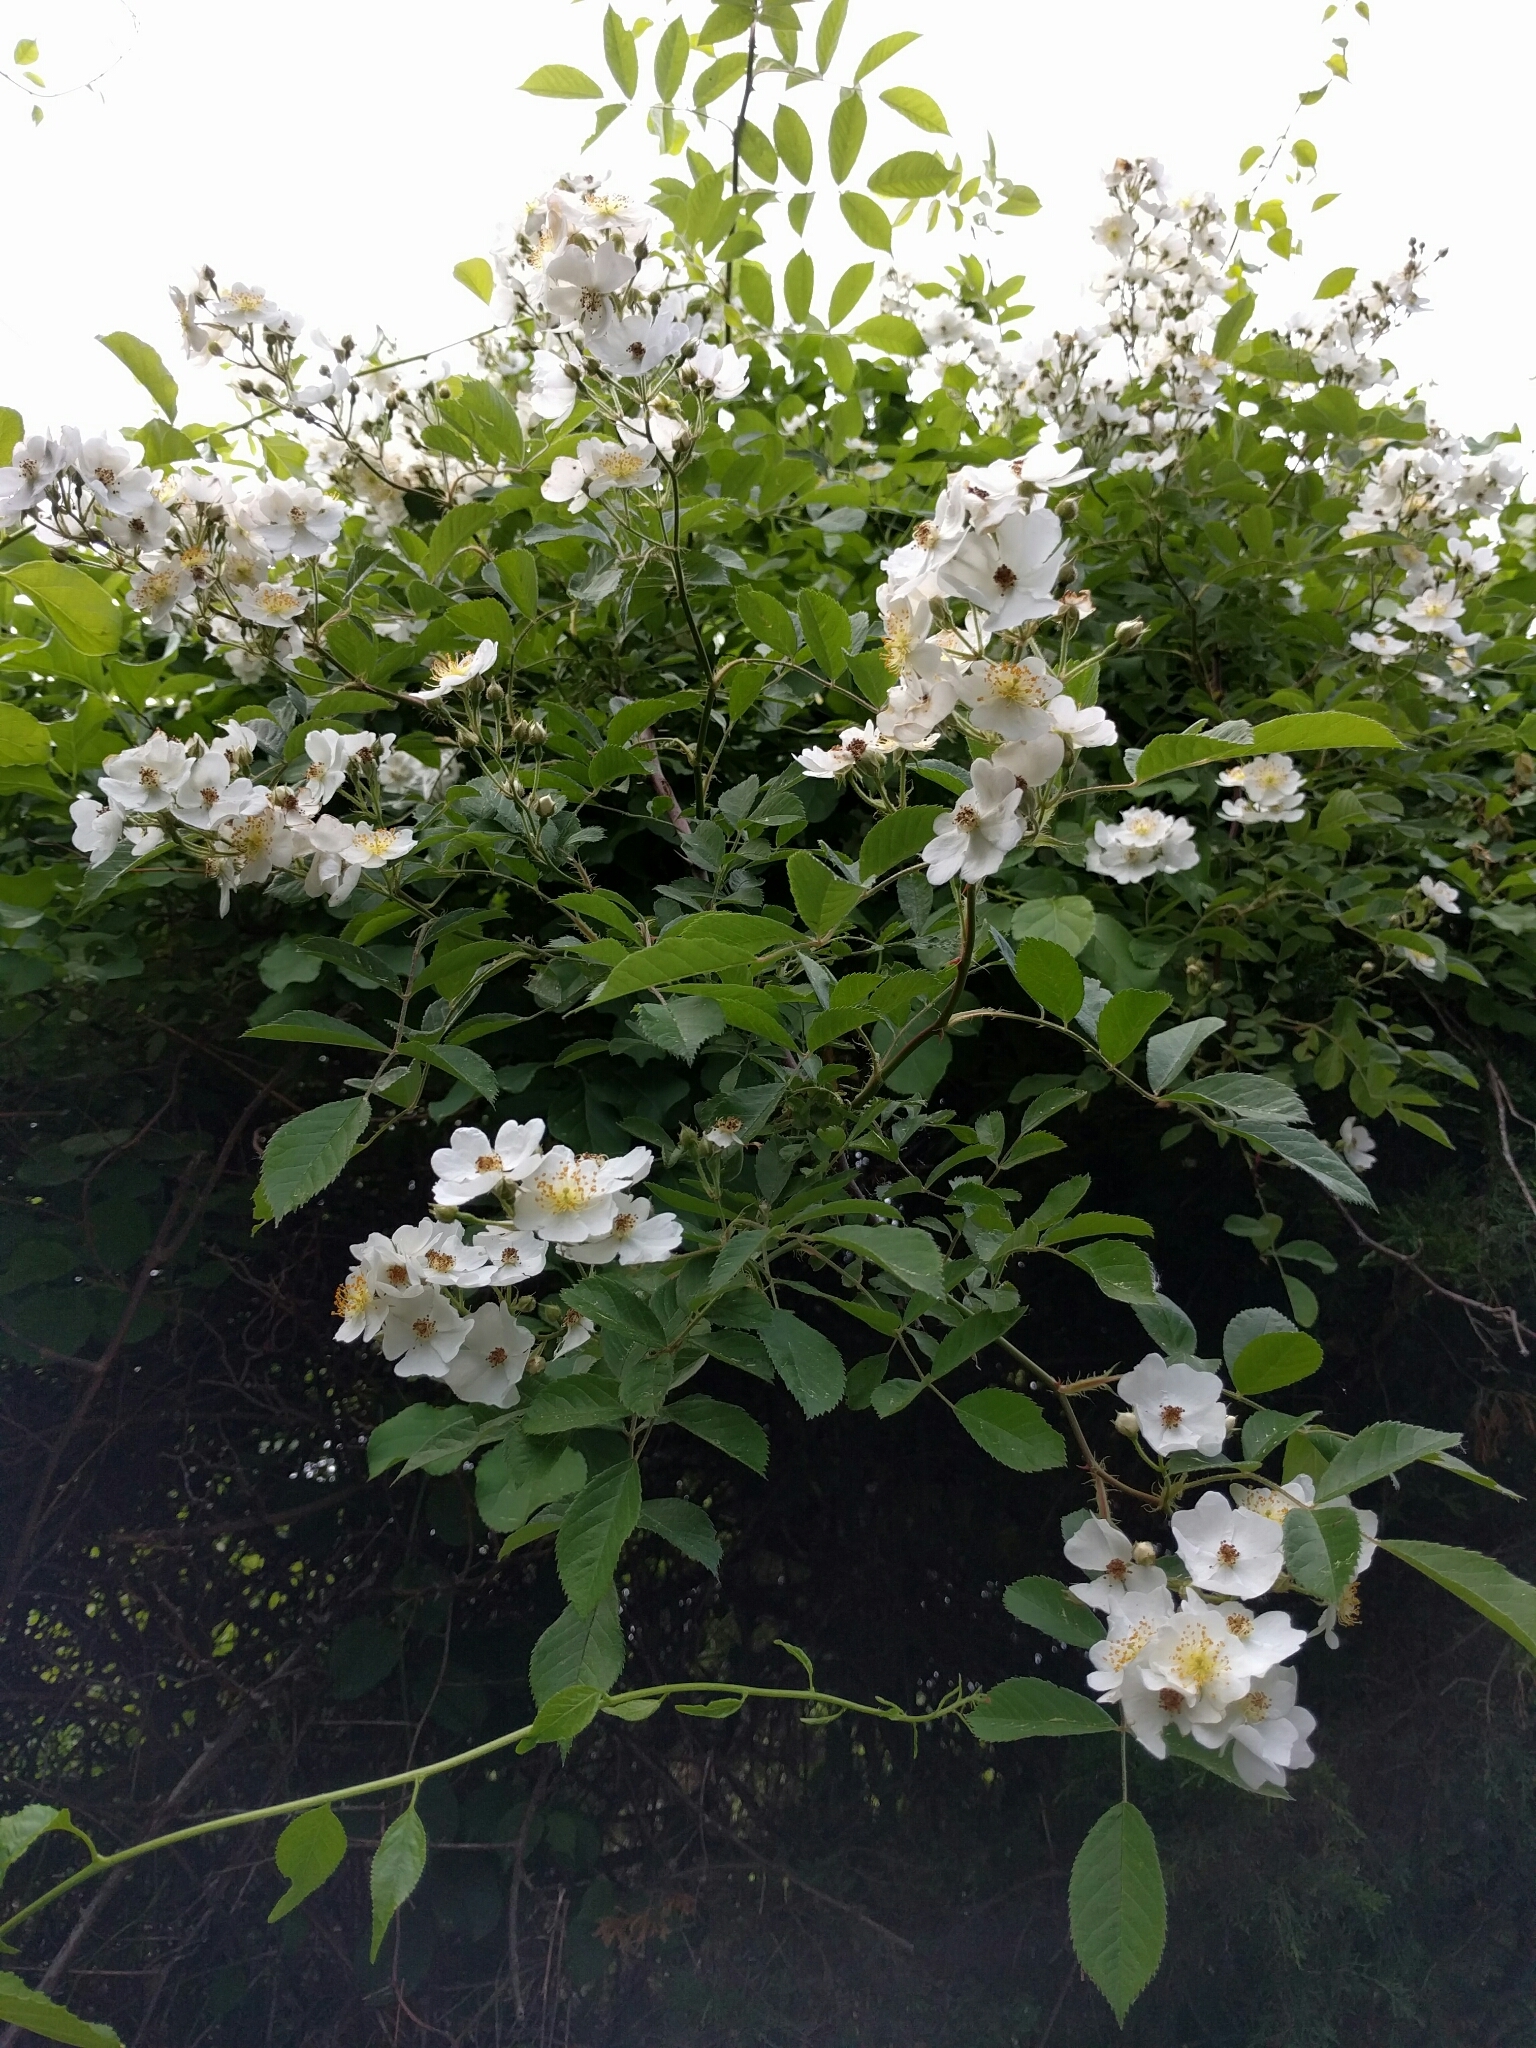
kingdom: Plantae
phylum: Tracheophyta
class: Magnoliopsida
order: Rosales
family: Rosaceae
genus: Rosa
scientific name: Rosa multiflora
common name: Multiflora rose
